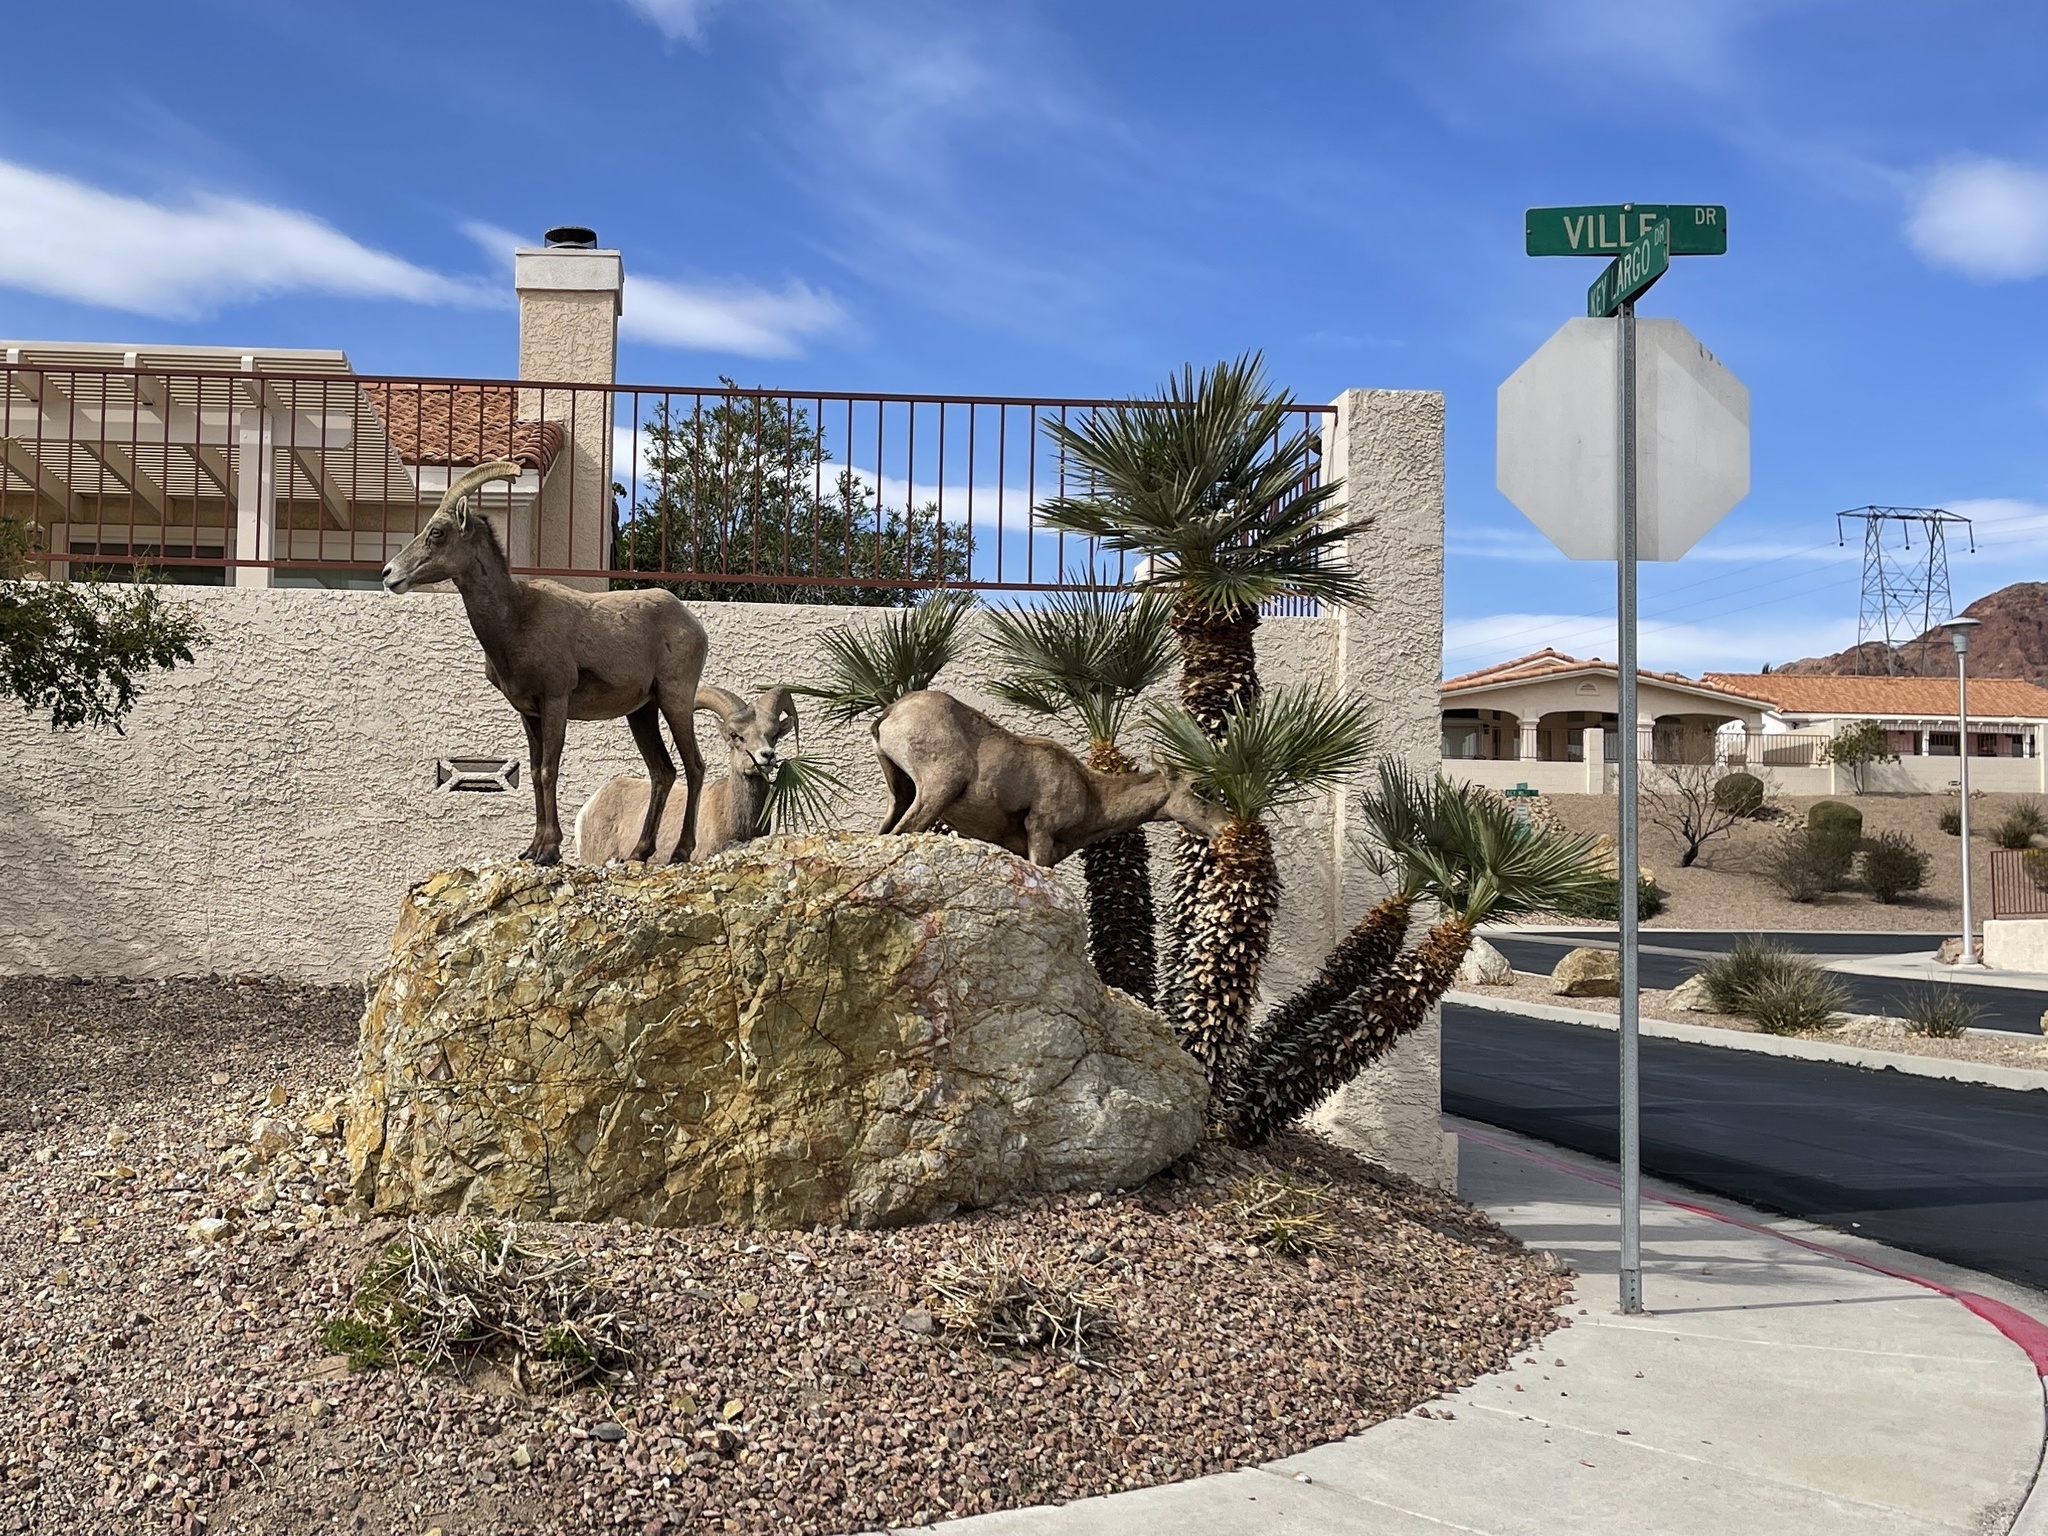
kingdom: Animalia
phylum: Chordata
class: Mammalia
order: Artiodactyla
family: Bovidae
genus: Ovis
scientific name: Ovis canadensis
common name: Bighorn sheep
